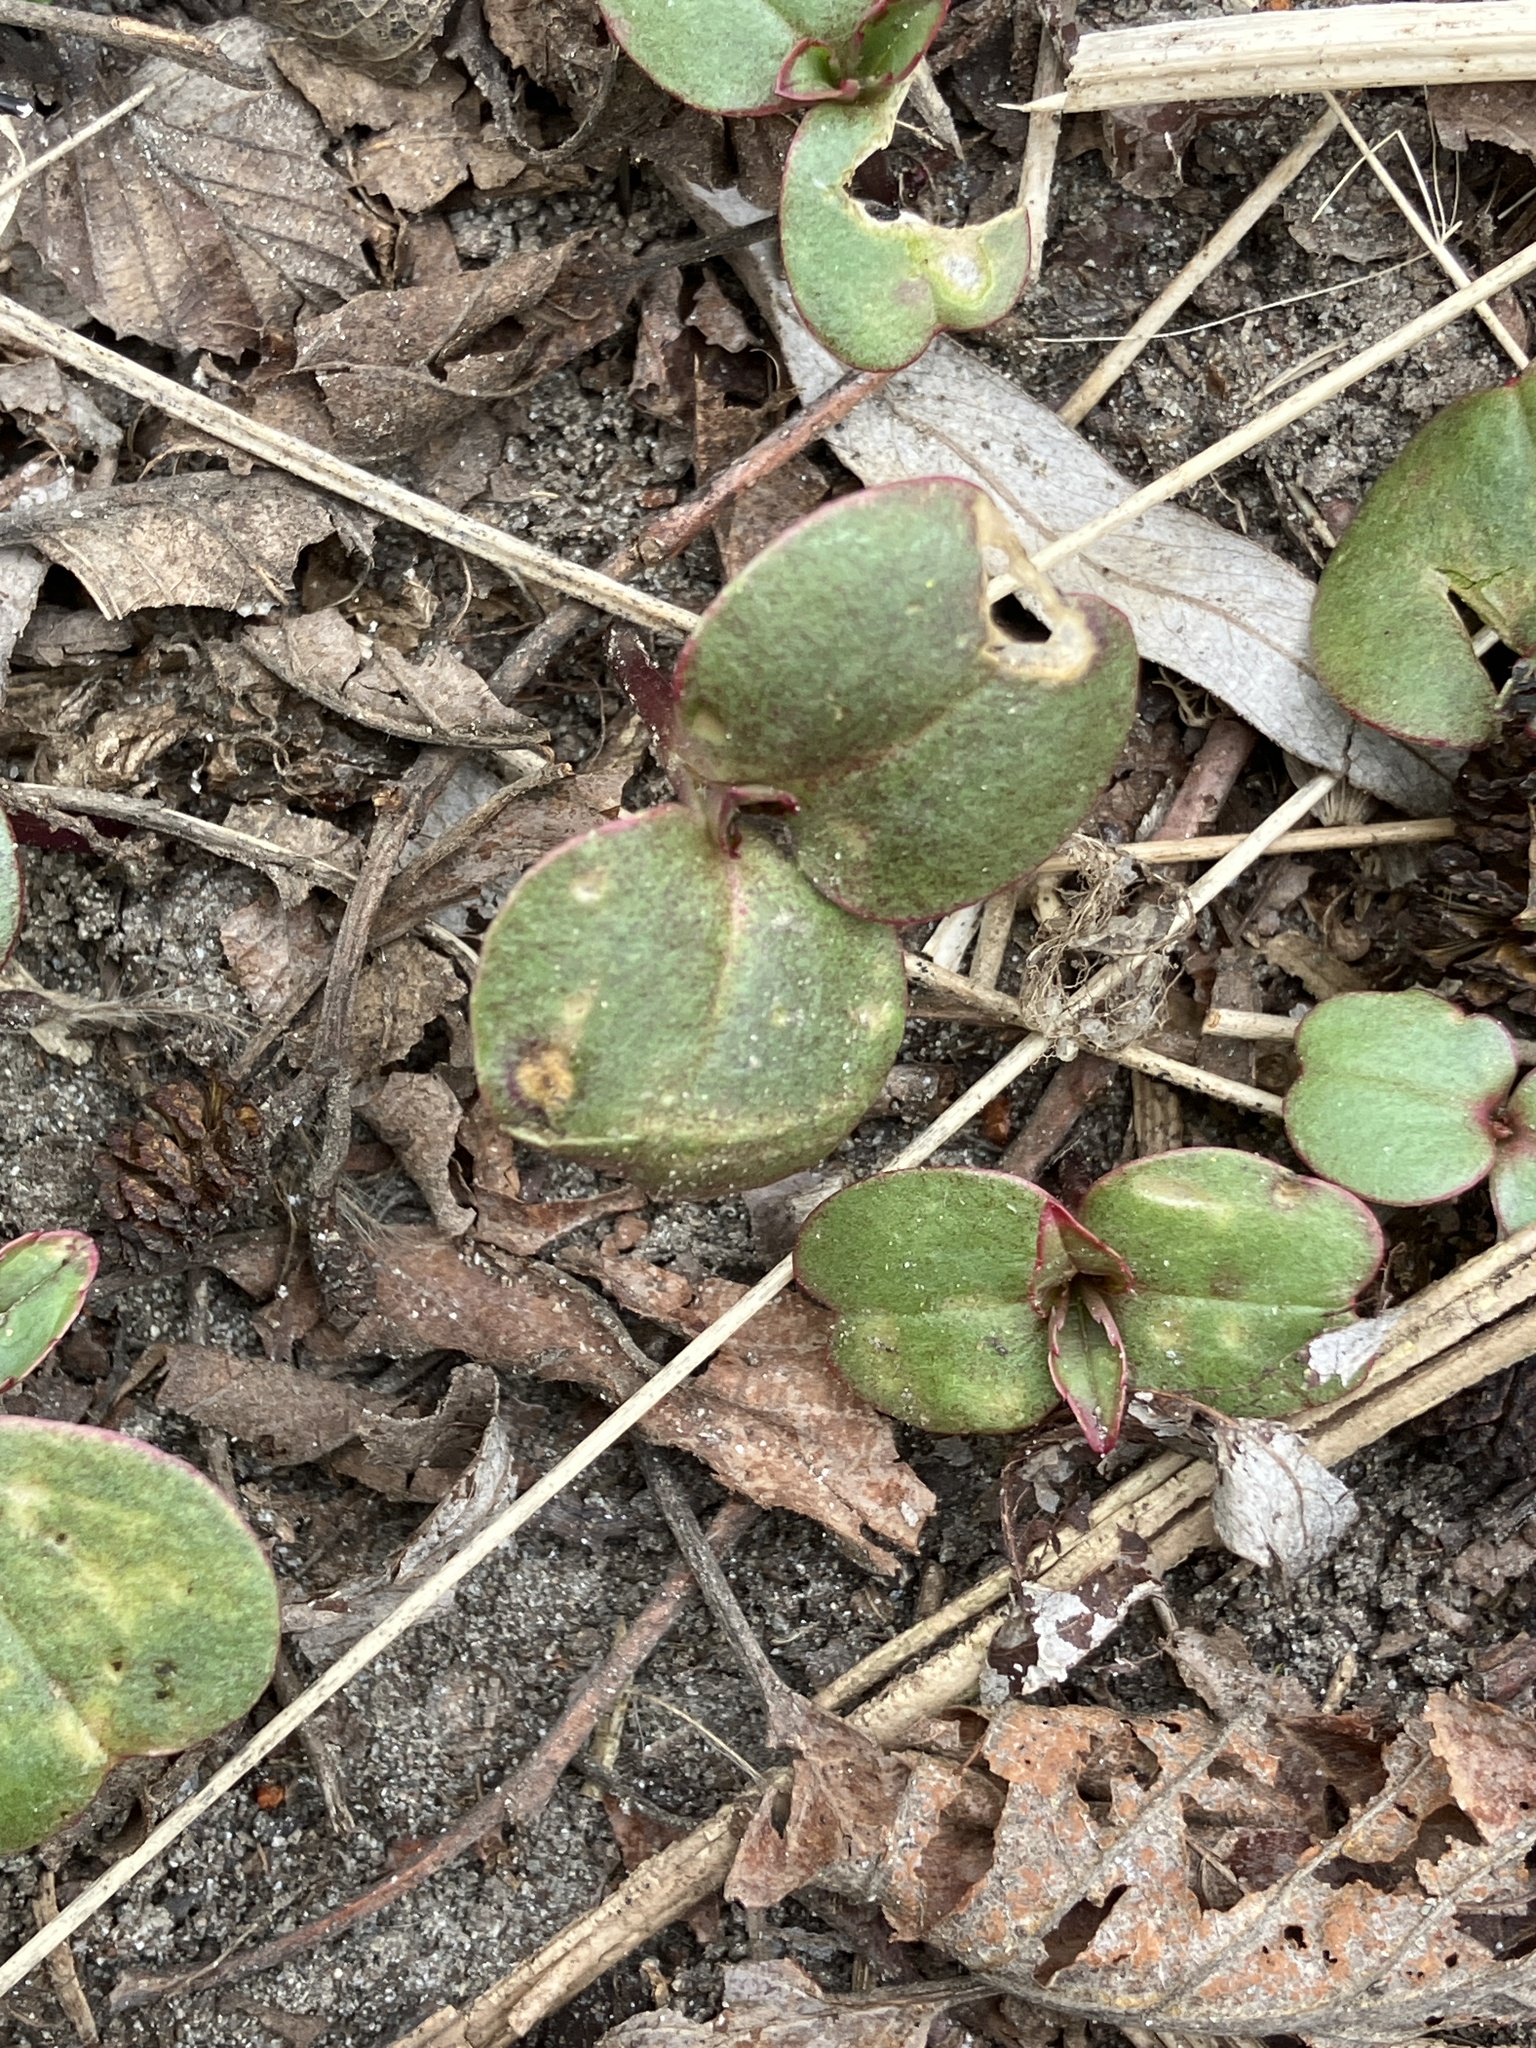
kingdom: Plantae
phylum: Tracheophyta
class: Magnoliopsida
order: Ericales
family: Balsaminaceae
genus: Impatiens
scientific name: Impatiens glandulifera
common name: Himalayan balsam
